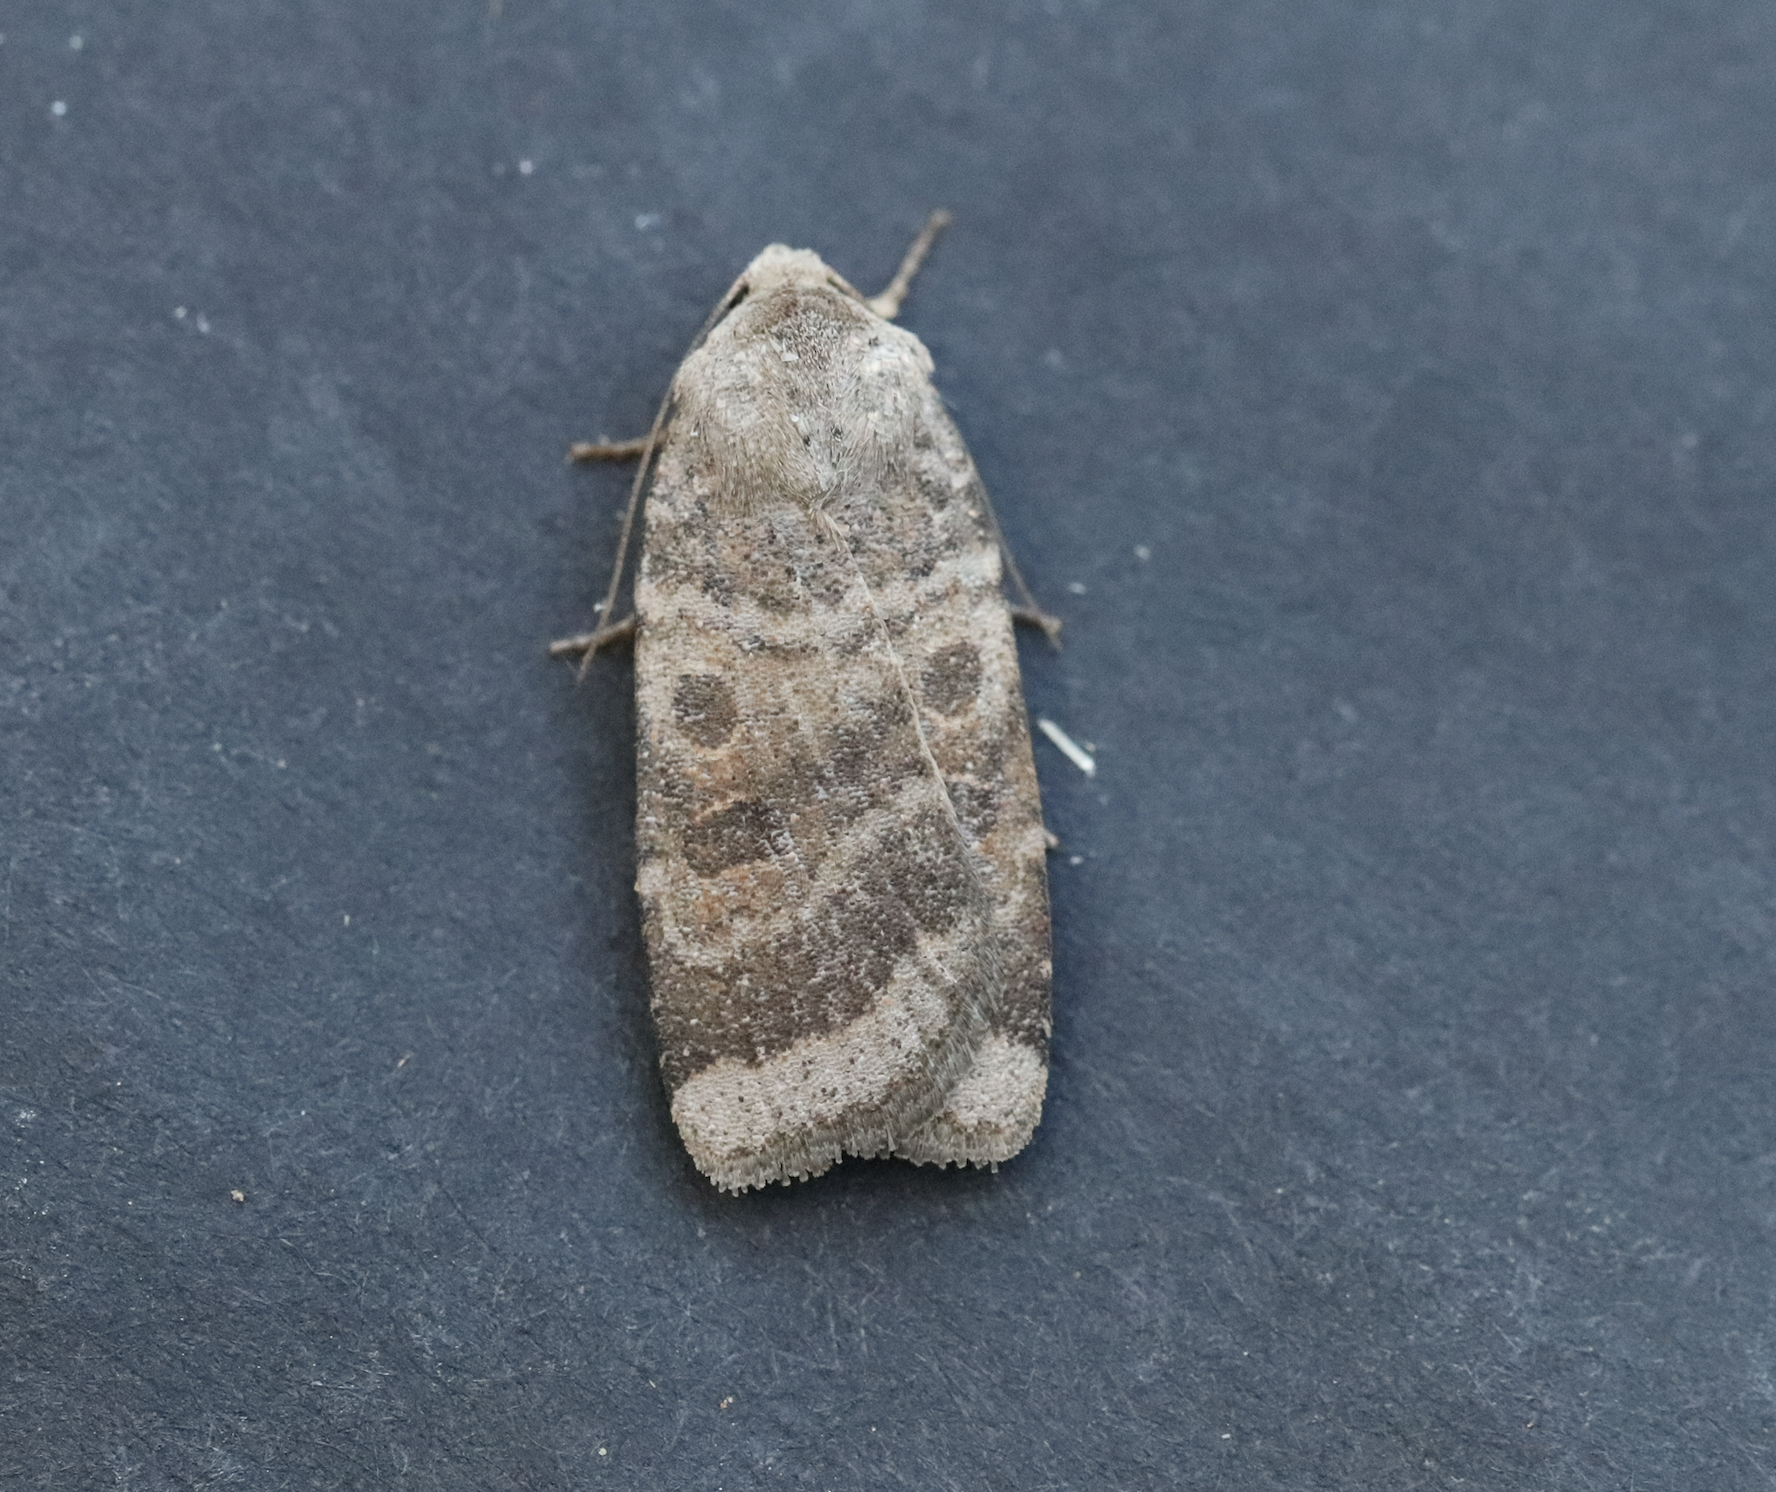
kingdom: Animalia
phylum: Arthropoda
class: Insecta
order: Lepidoptera
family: Noctuidae
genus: Abagrotis
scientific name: Abagrotis placida
